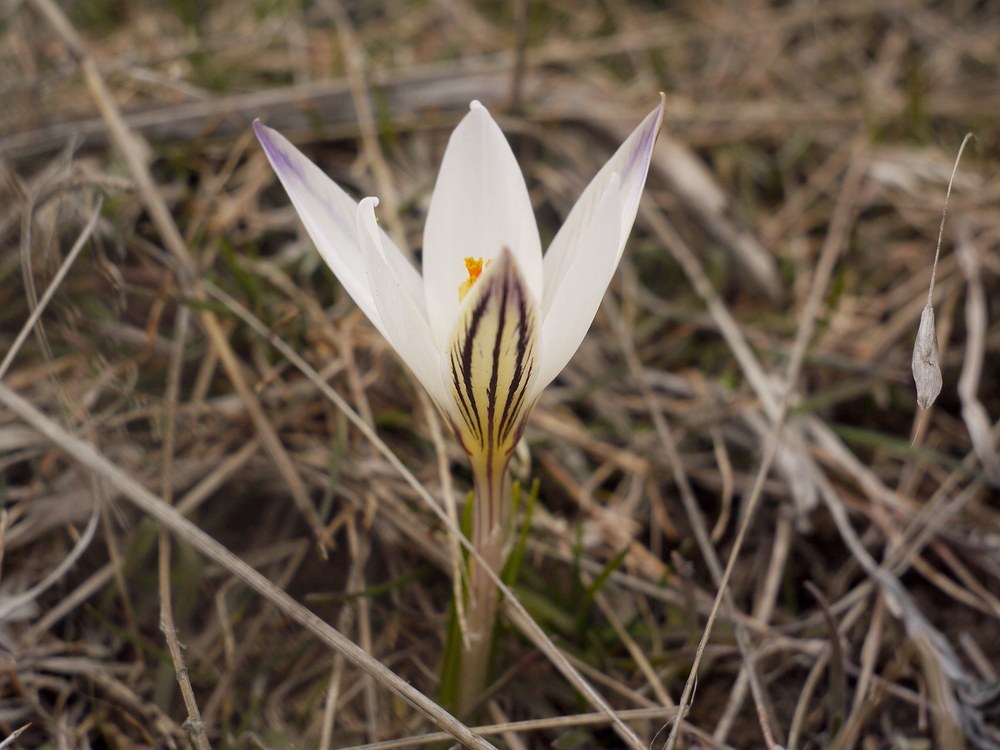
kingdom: Plantae
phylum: Tracheophyta
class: Liliopsida
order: Asparagales
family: Iridaceae
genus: Crocus
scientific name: Crocus reticulatus
